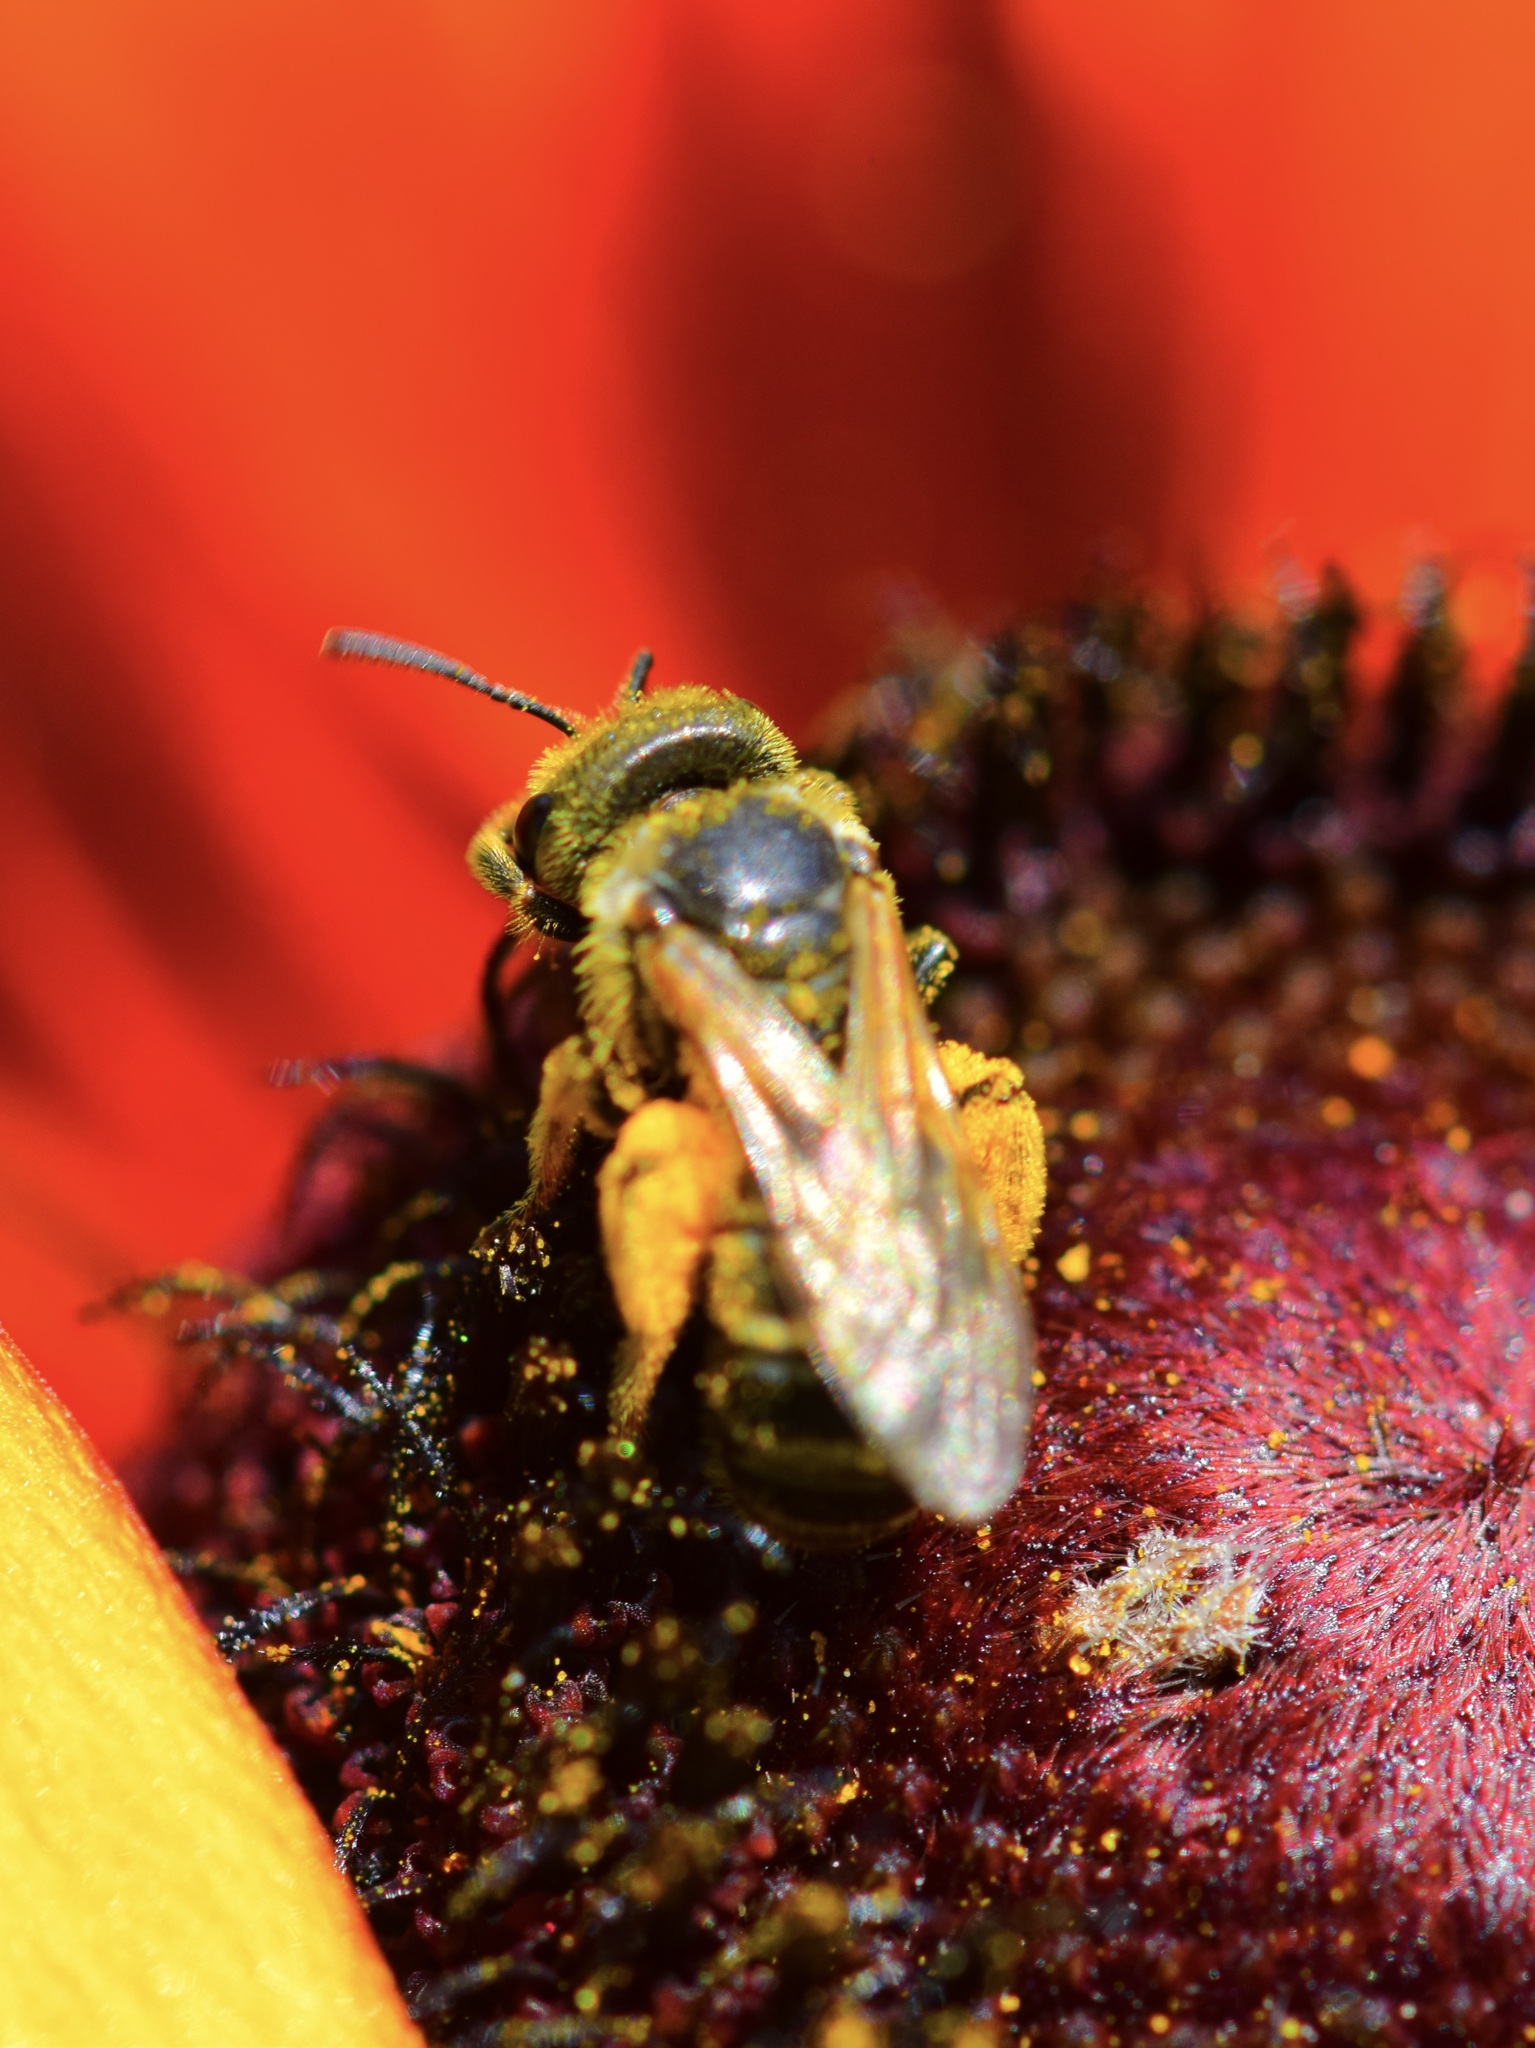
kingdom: Animalia
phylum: Arthropoda
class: Insecta
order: Hymenoptera
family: Halictidae
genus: Halictus
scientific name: Halictus ligatus
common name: Ligated furrow bee
